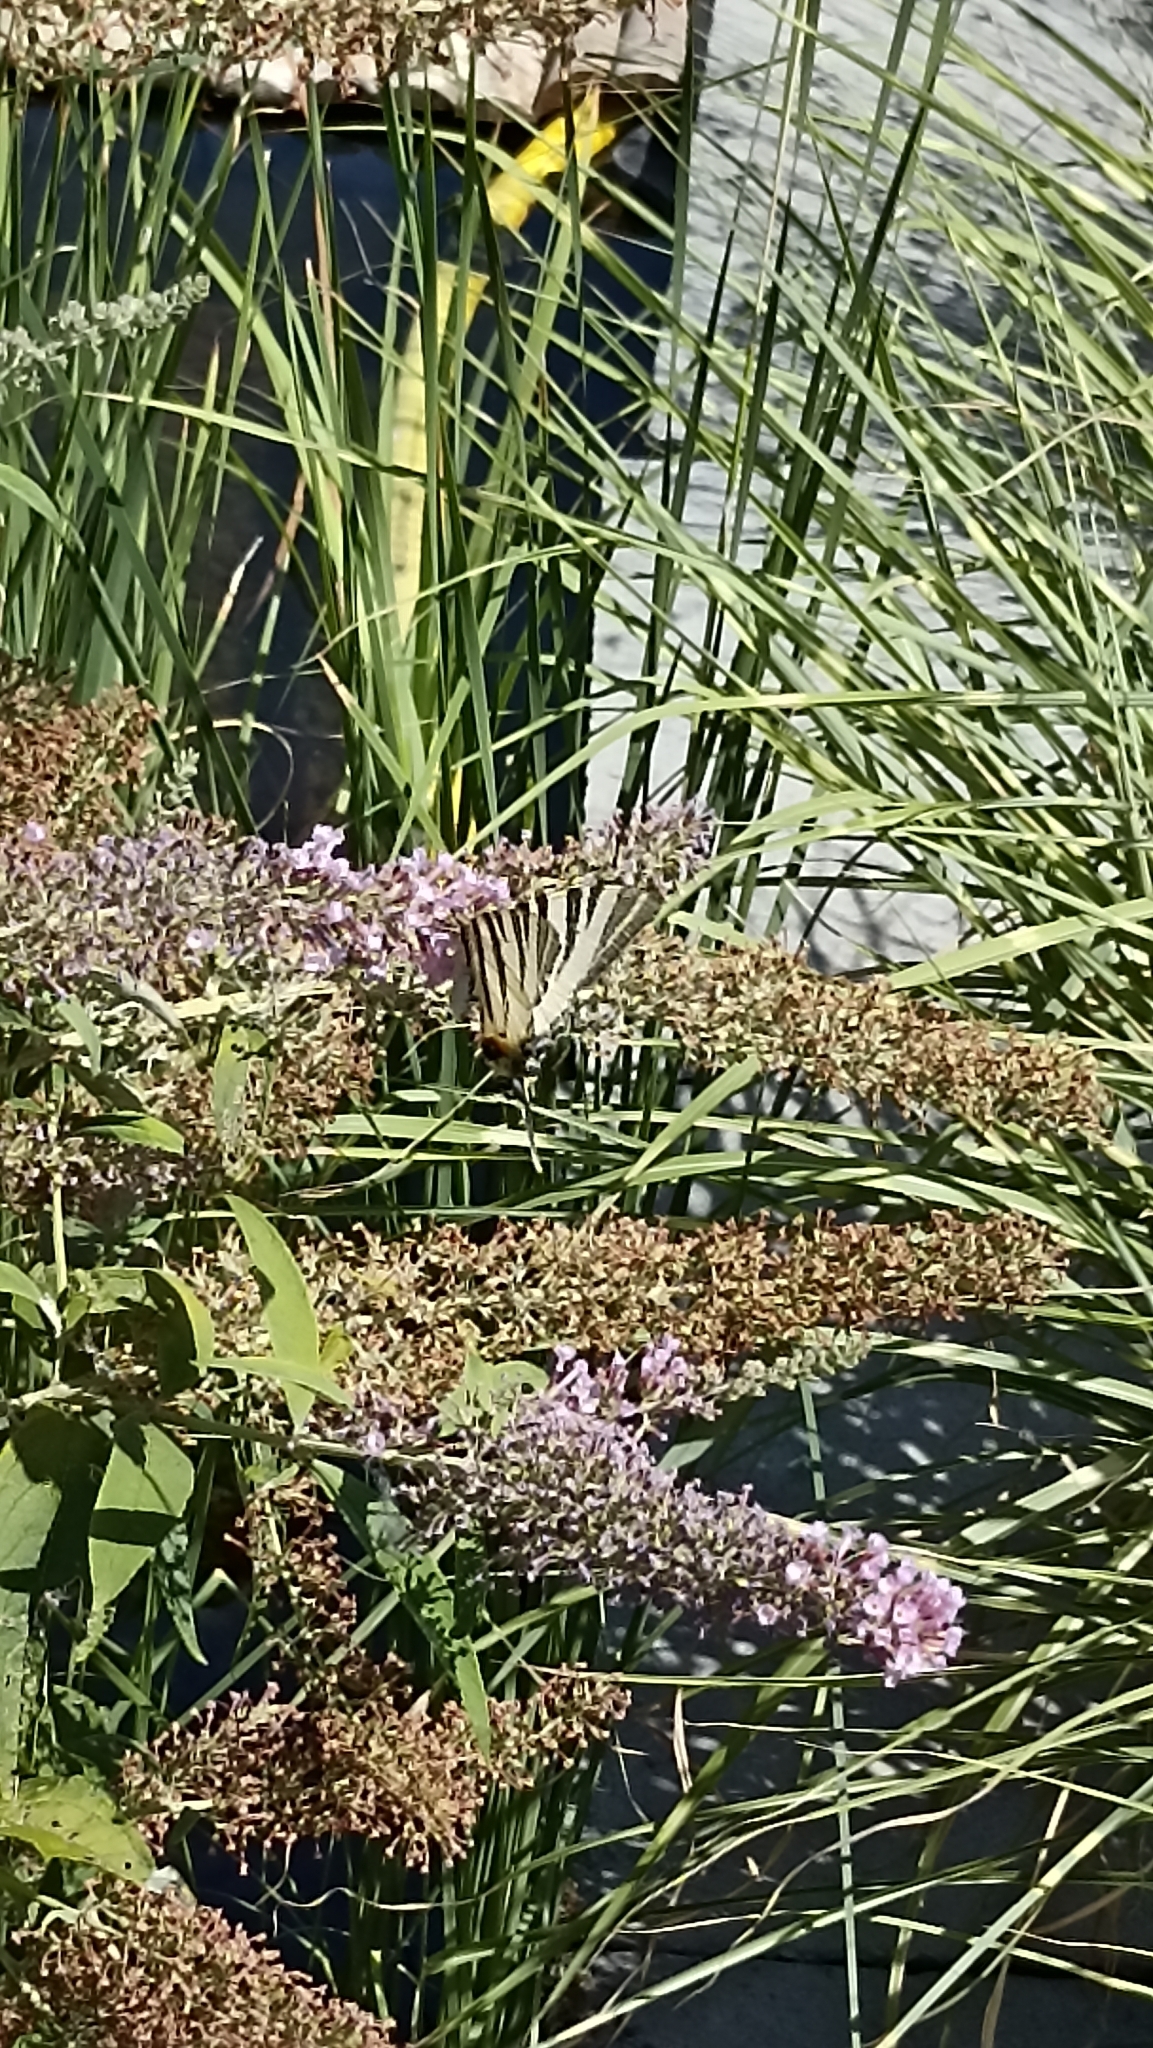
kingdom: Animalia
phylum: Arthropoda
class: Insecta
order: Lepidoptera
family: Papilionidae
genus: Iphiclides
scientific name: Iphiclides podalirius
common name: Scarce swallowtail
